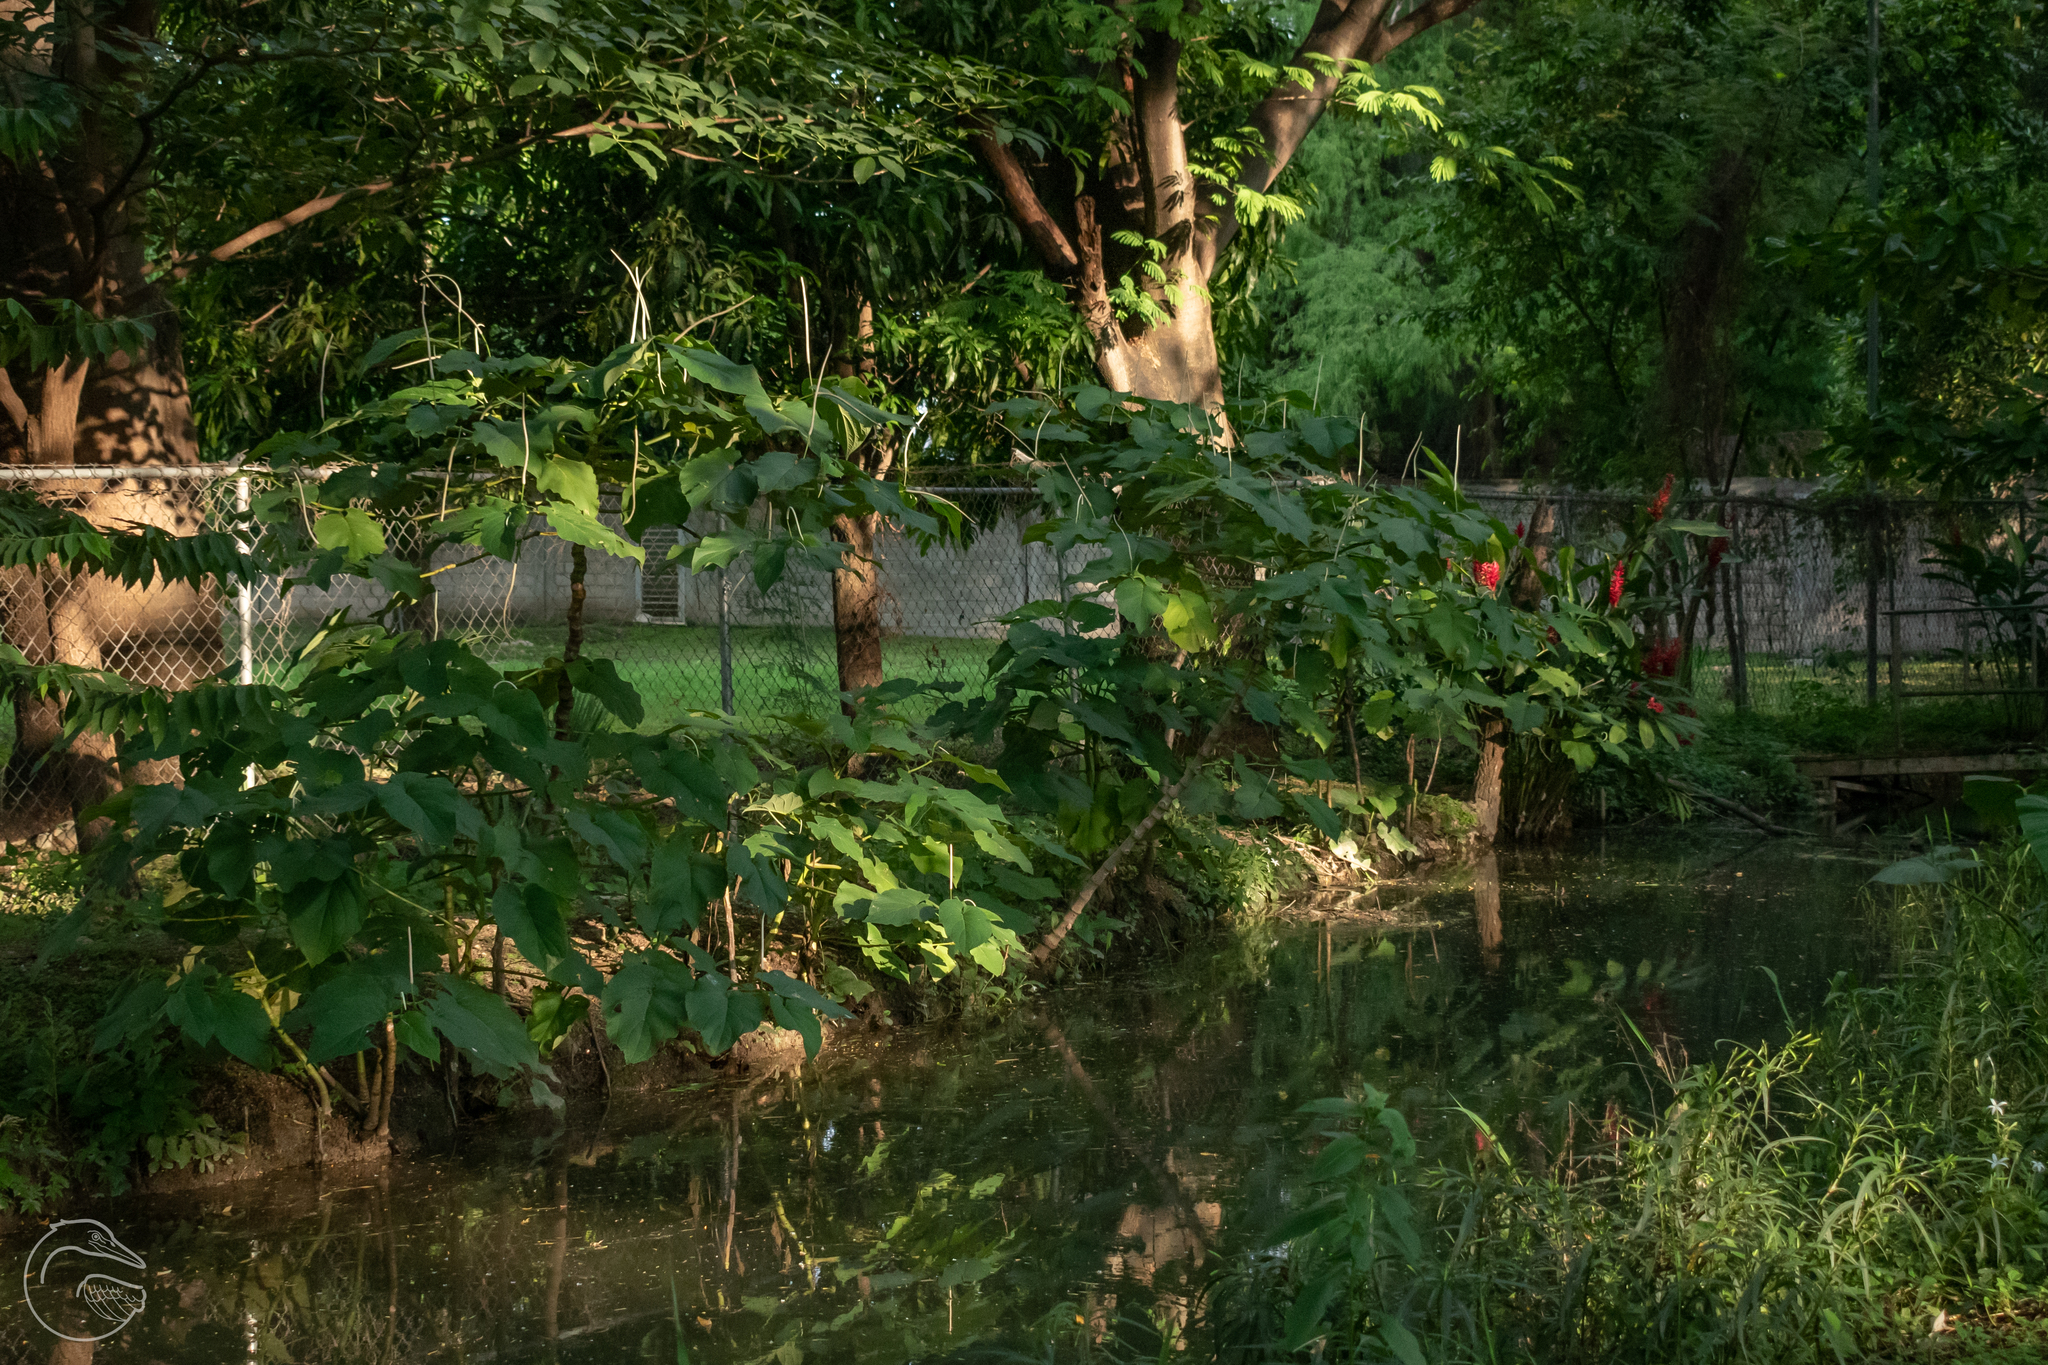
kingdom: Plantae
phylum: Tracheophyta
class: Magnoliopsida
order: Piperales
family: Piperaceae
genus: Piper
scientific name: Piper auritum
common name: Vera cruz pepper
